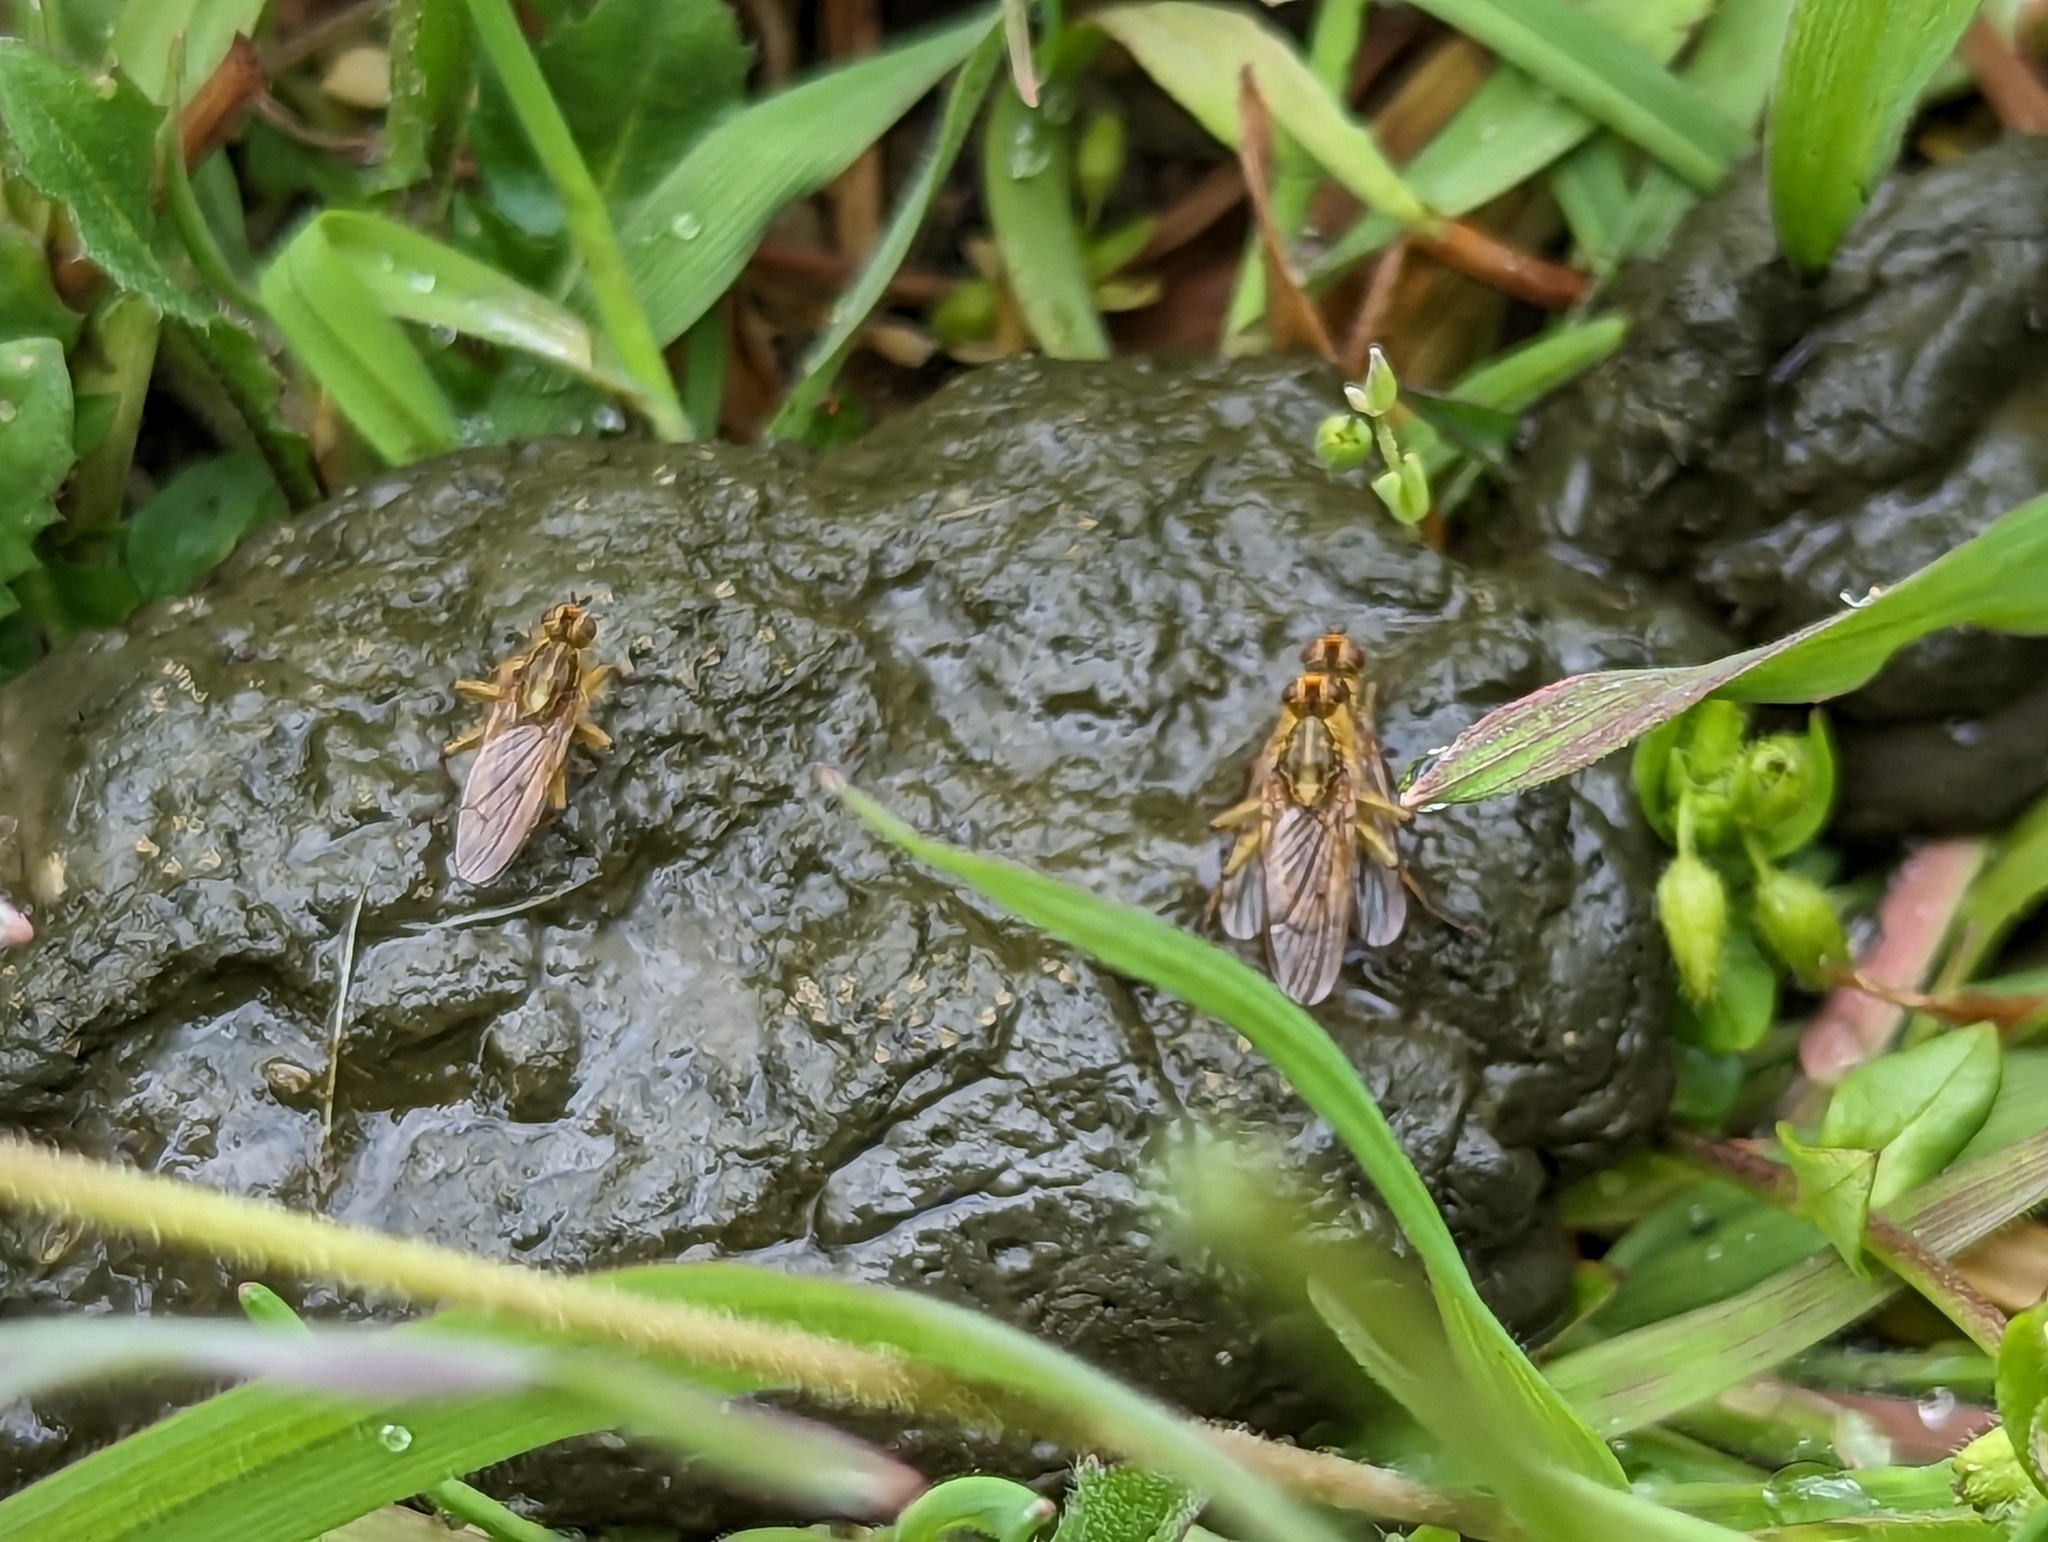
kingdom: Animalia
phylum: Arthropoda
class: Insecta
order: Diptera
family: Scathophagidae
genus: Scathophaga
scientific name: Scathophaga stercoraria
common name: Yellow dung fly
